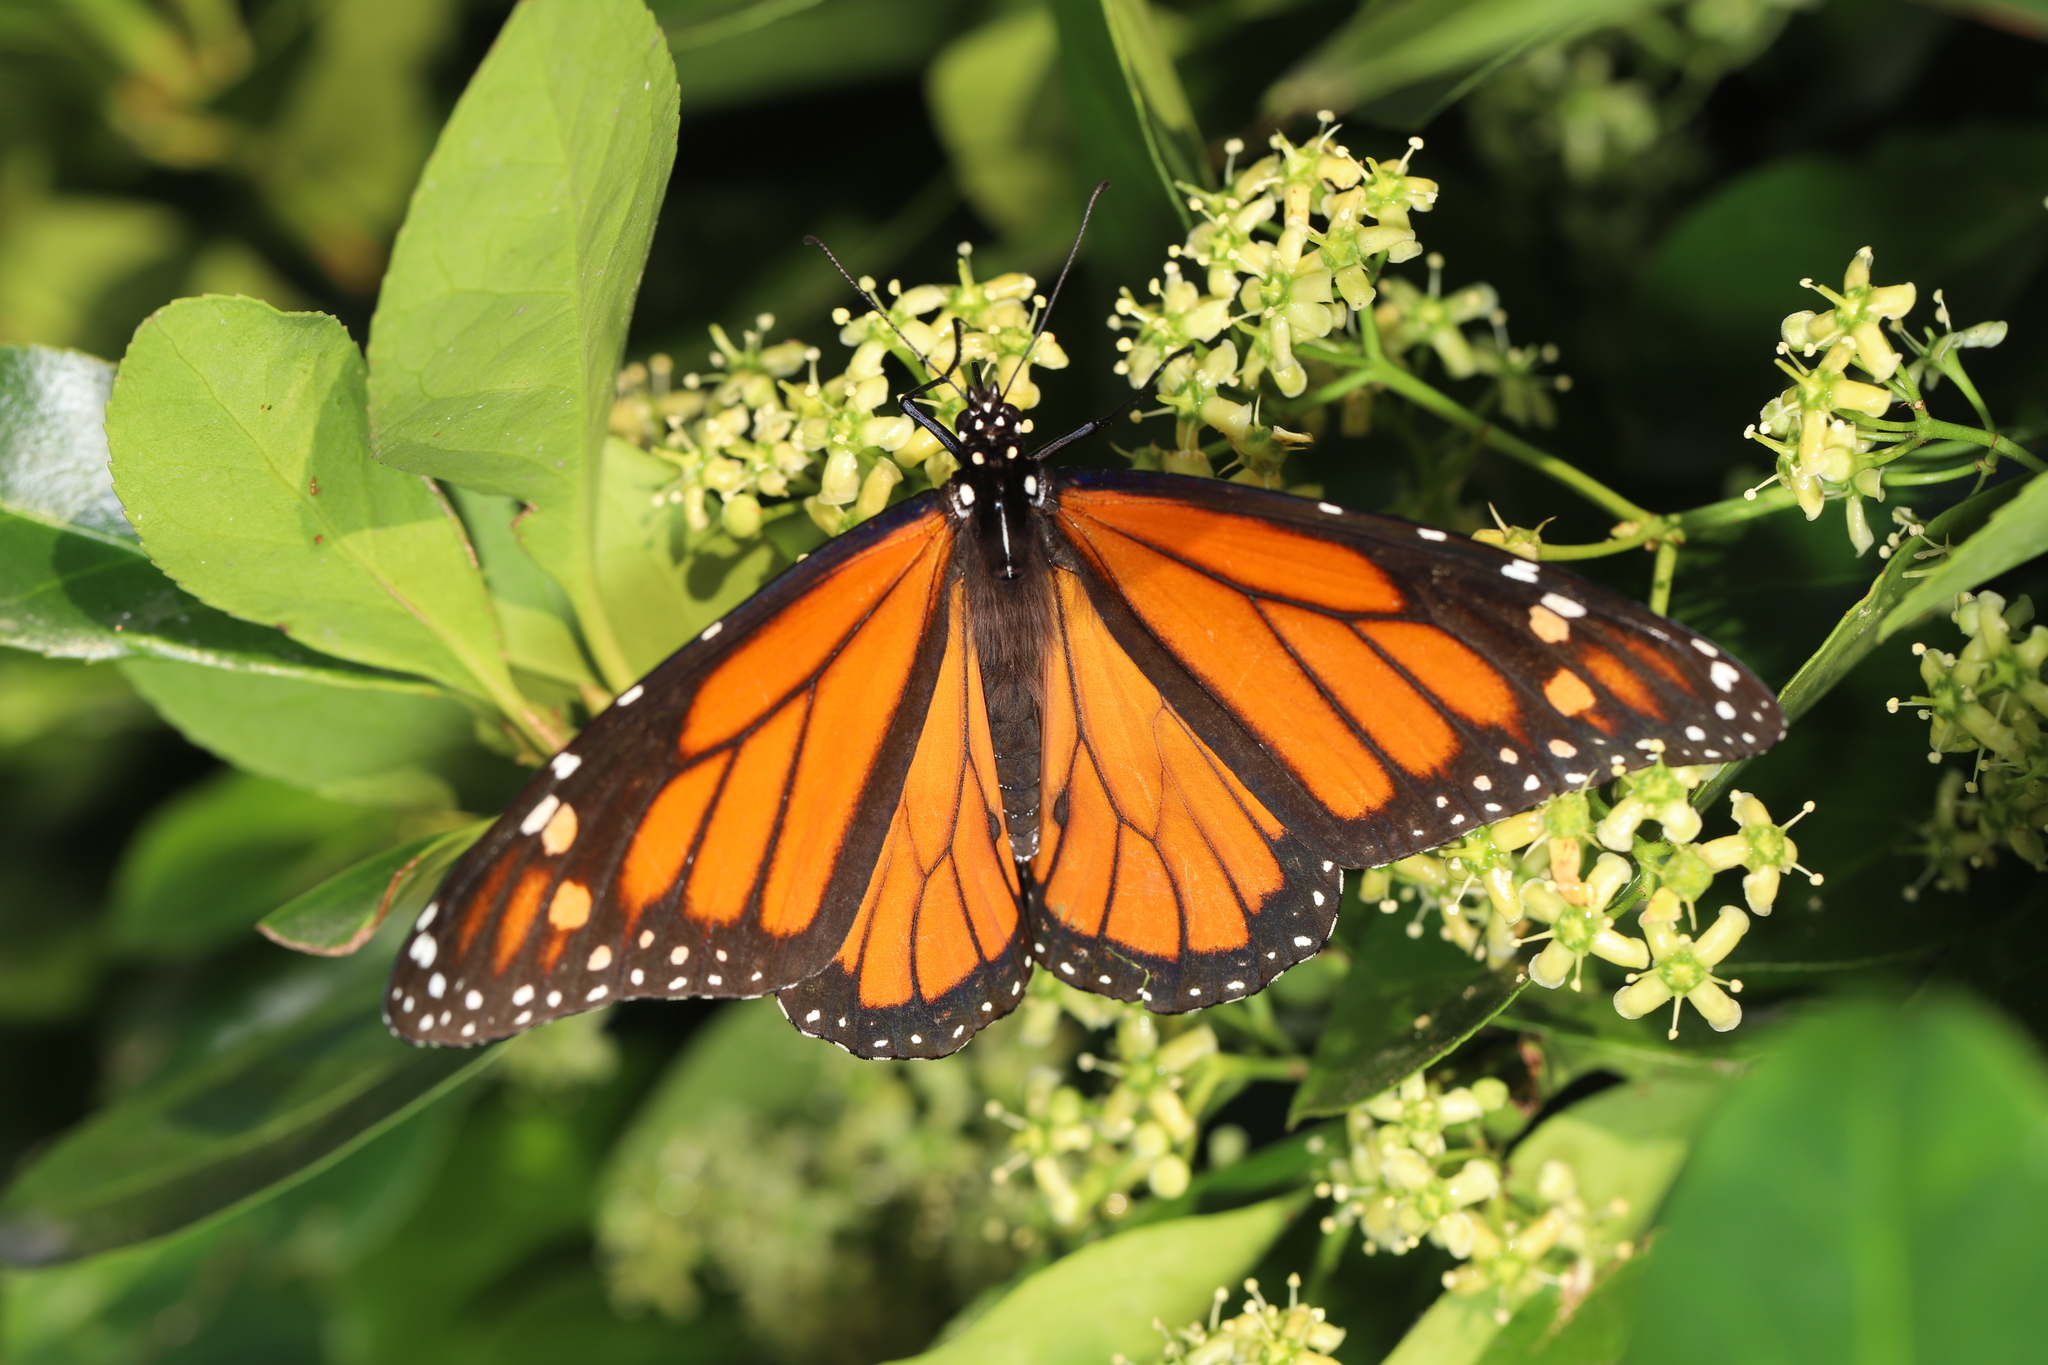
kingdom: Animalia
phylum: Arthropoda
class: Insecta
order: Lepidoptera
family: Nymphalidae
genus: Danaus
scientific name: Danaus plexippus
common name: Monarch
